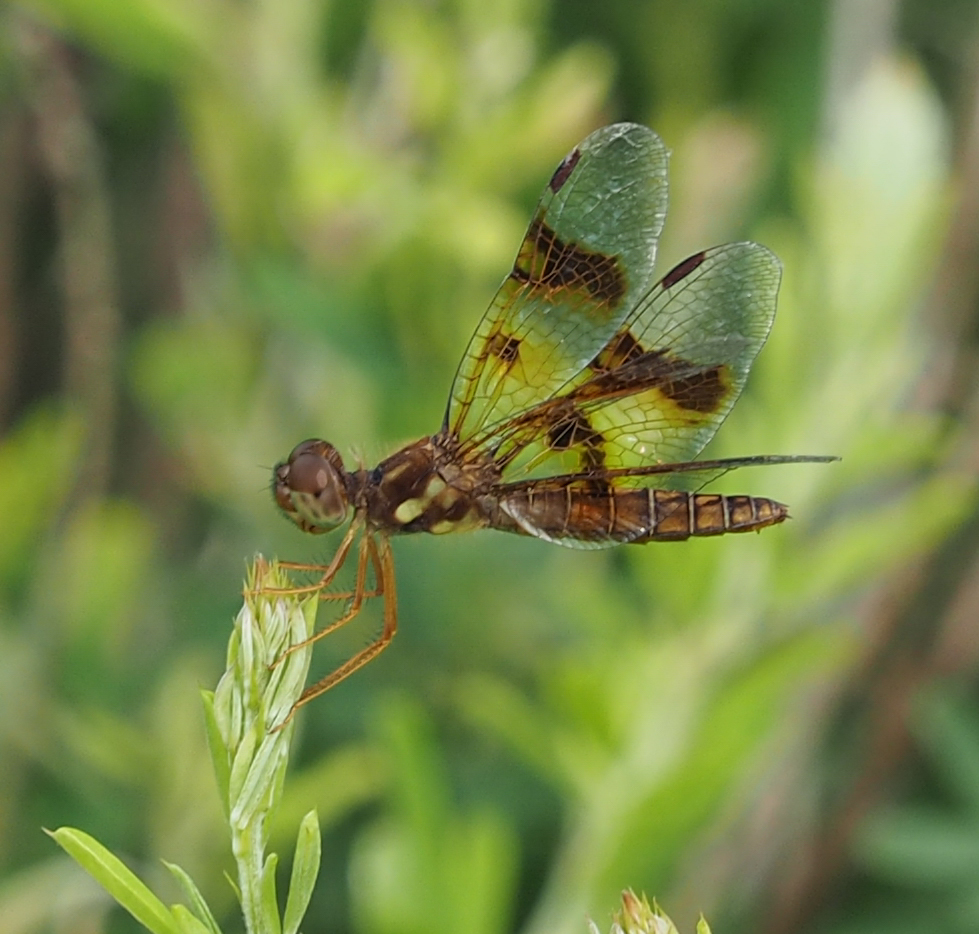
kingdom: Animalia
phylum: Arthropoda
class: Insecta
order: Odonata
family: Libellulidae
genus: Perithemis
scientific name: Perithemis tenera
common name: Eastern amberwing
